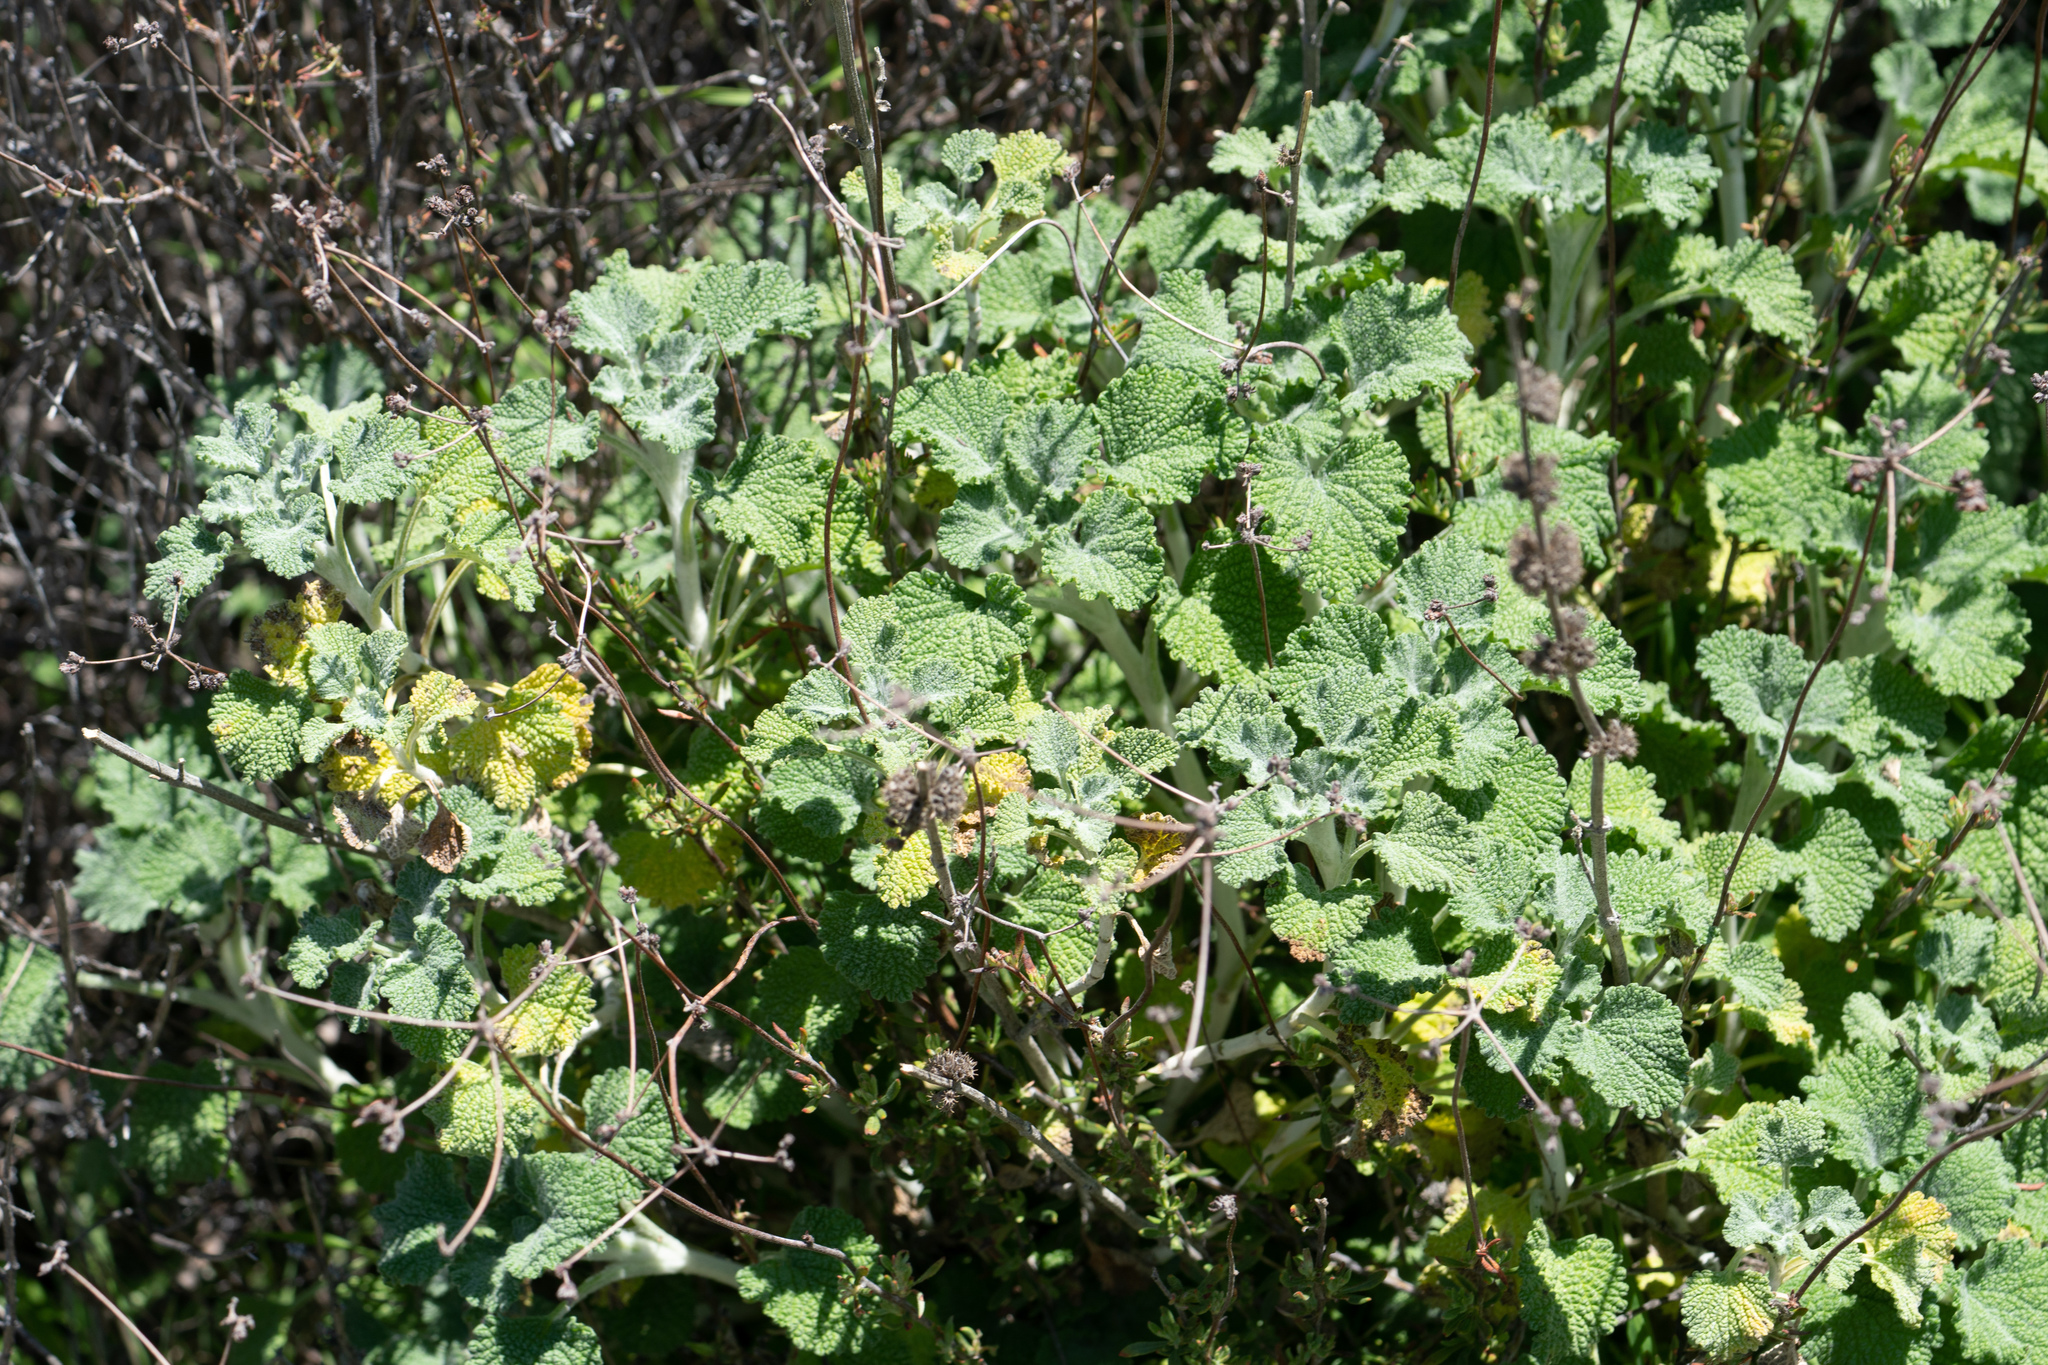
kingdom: Plantae
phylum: Tracheophyta
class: Magnoliopsida
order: Lamiales
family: Lamiaceae
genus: Marrubium
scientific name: Marrubium vulgare
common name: Horehound
